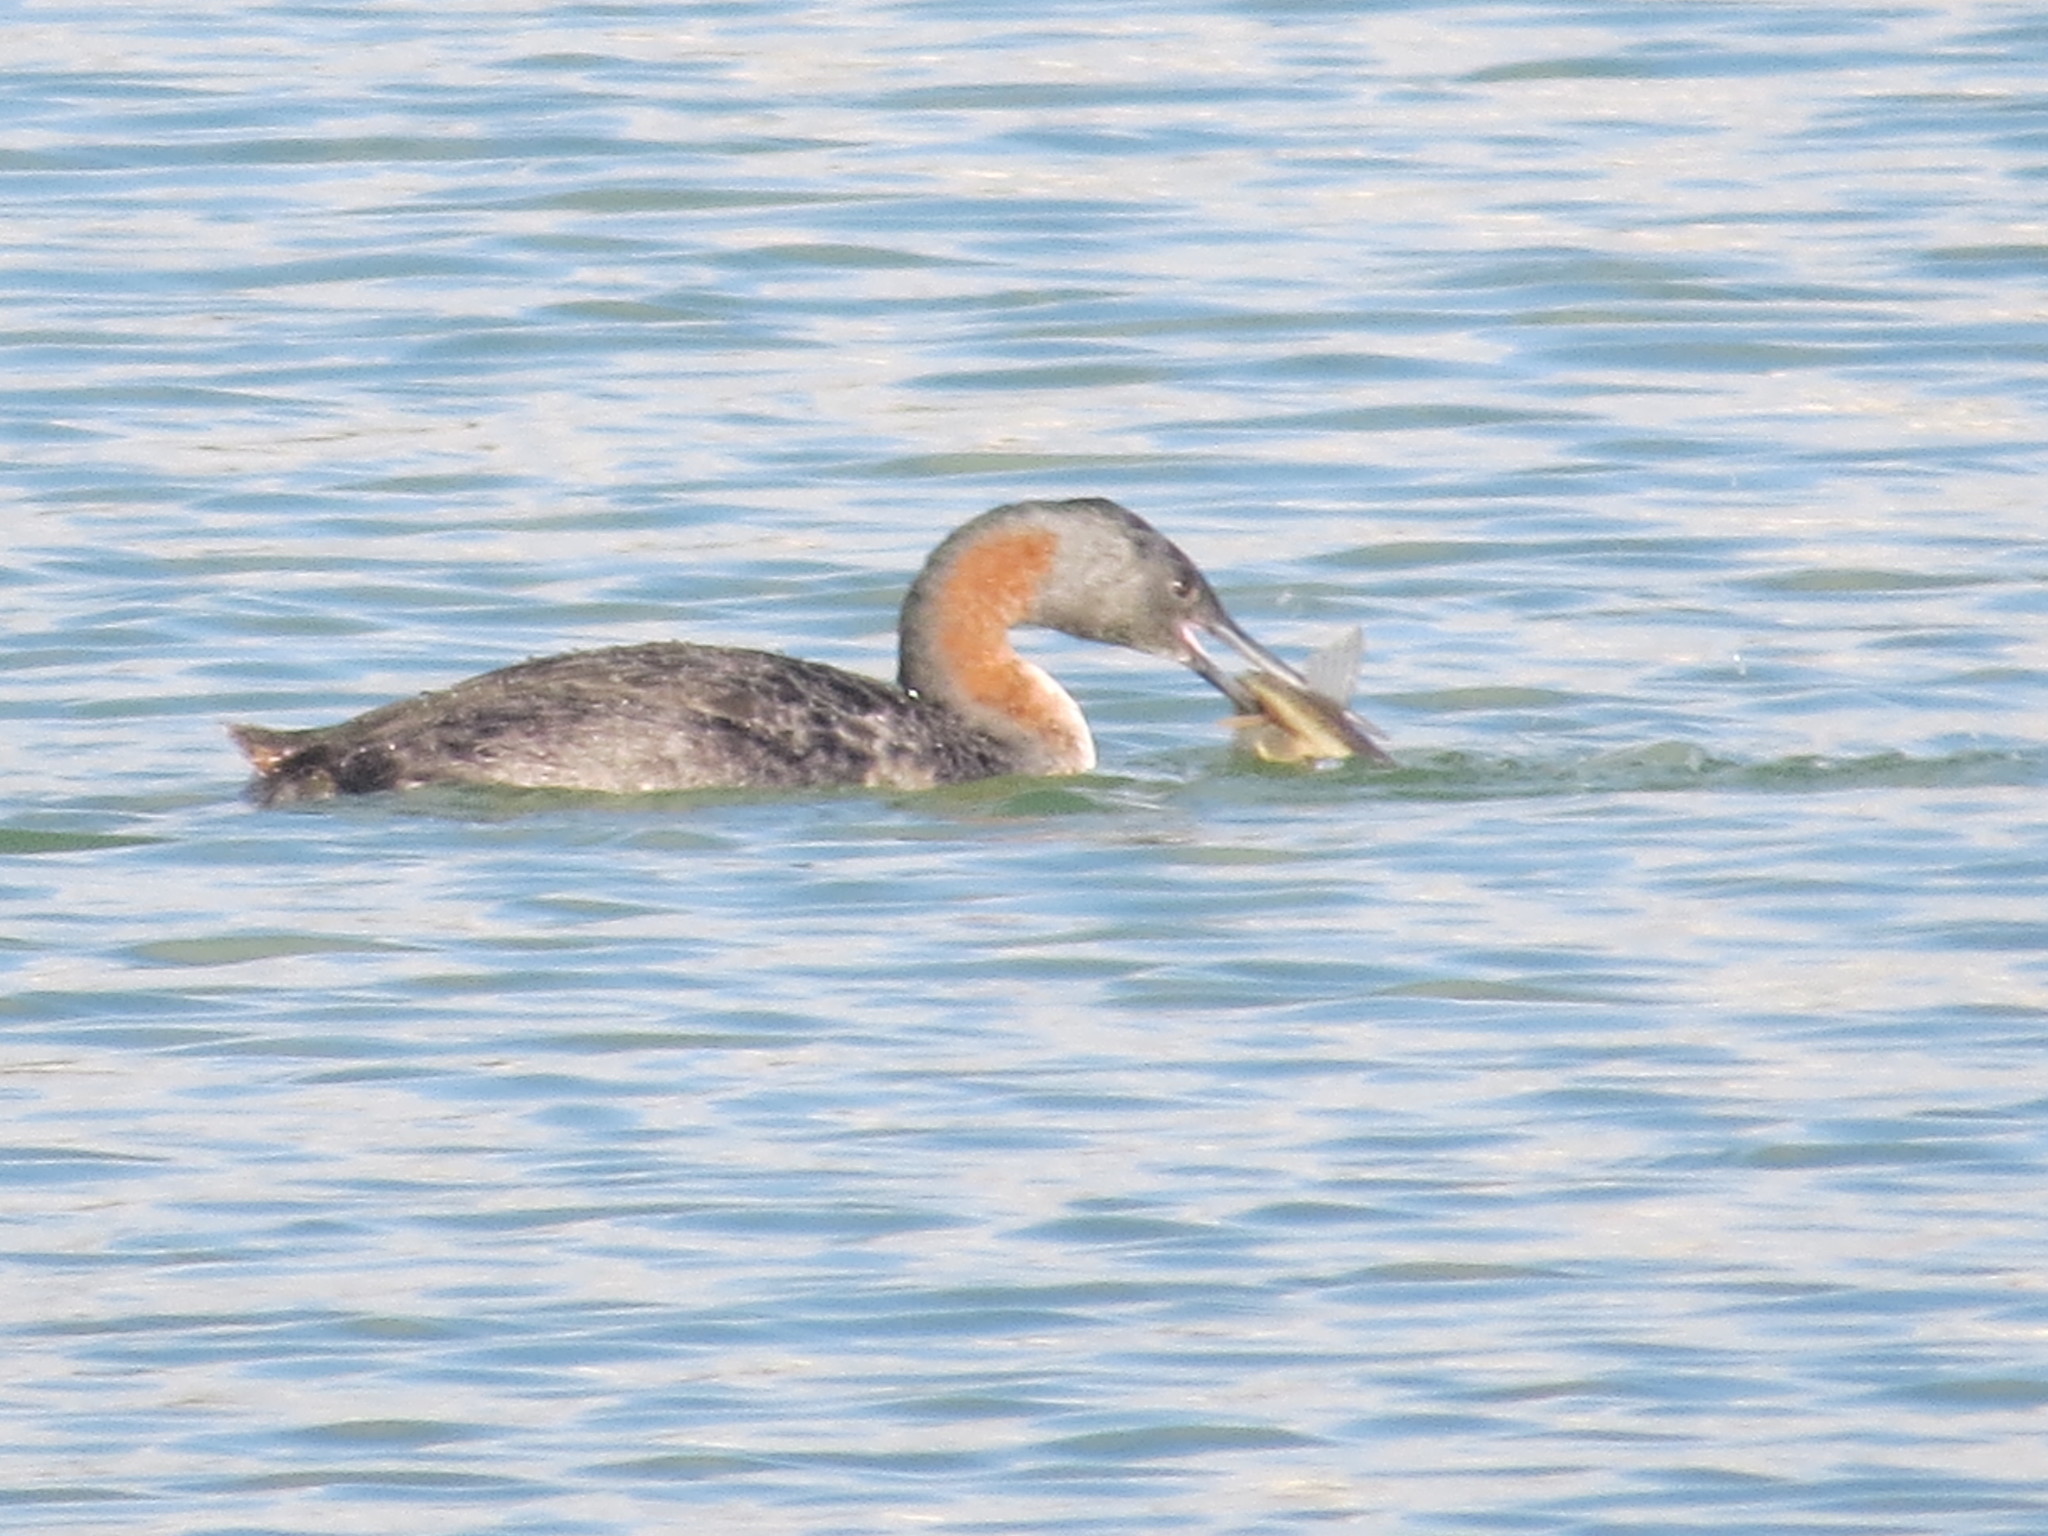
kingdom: Animalia
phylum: Chordata
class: Aves
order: Podicipediformes
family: Podicipedidae
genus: Podiceps
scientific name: Podiceps major
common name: Great grebe
